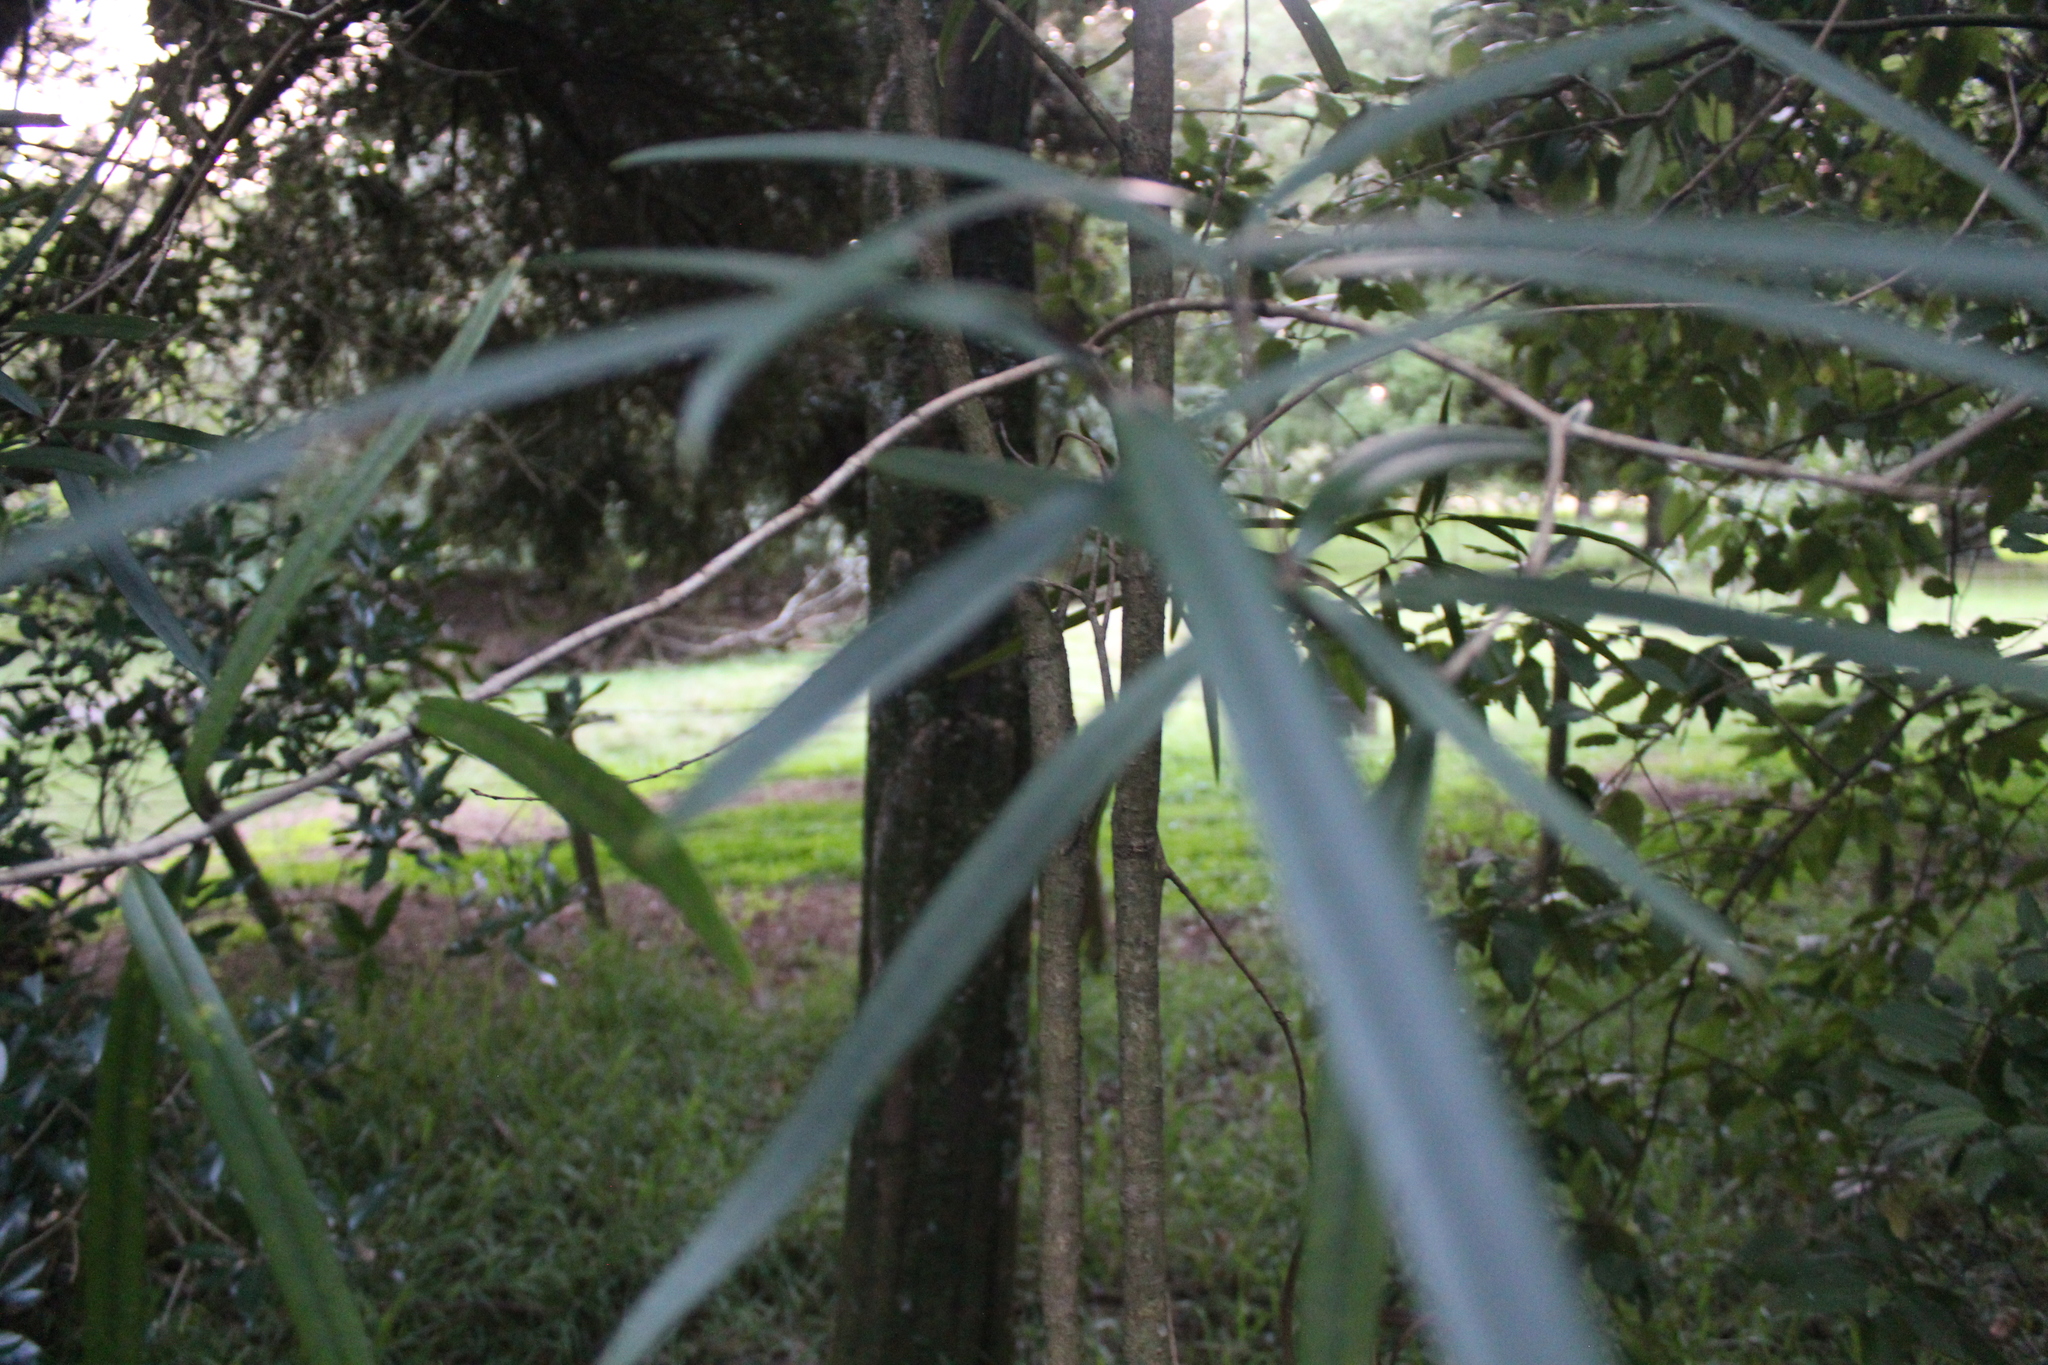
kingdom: Plantae
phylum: Tracheophyta
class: Magnoliopsida
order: Lamiales
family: Oleaceae
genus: Nestegis
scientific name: Nestegis cunninghamii
